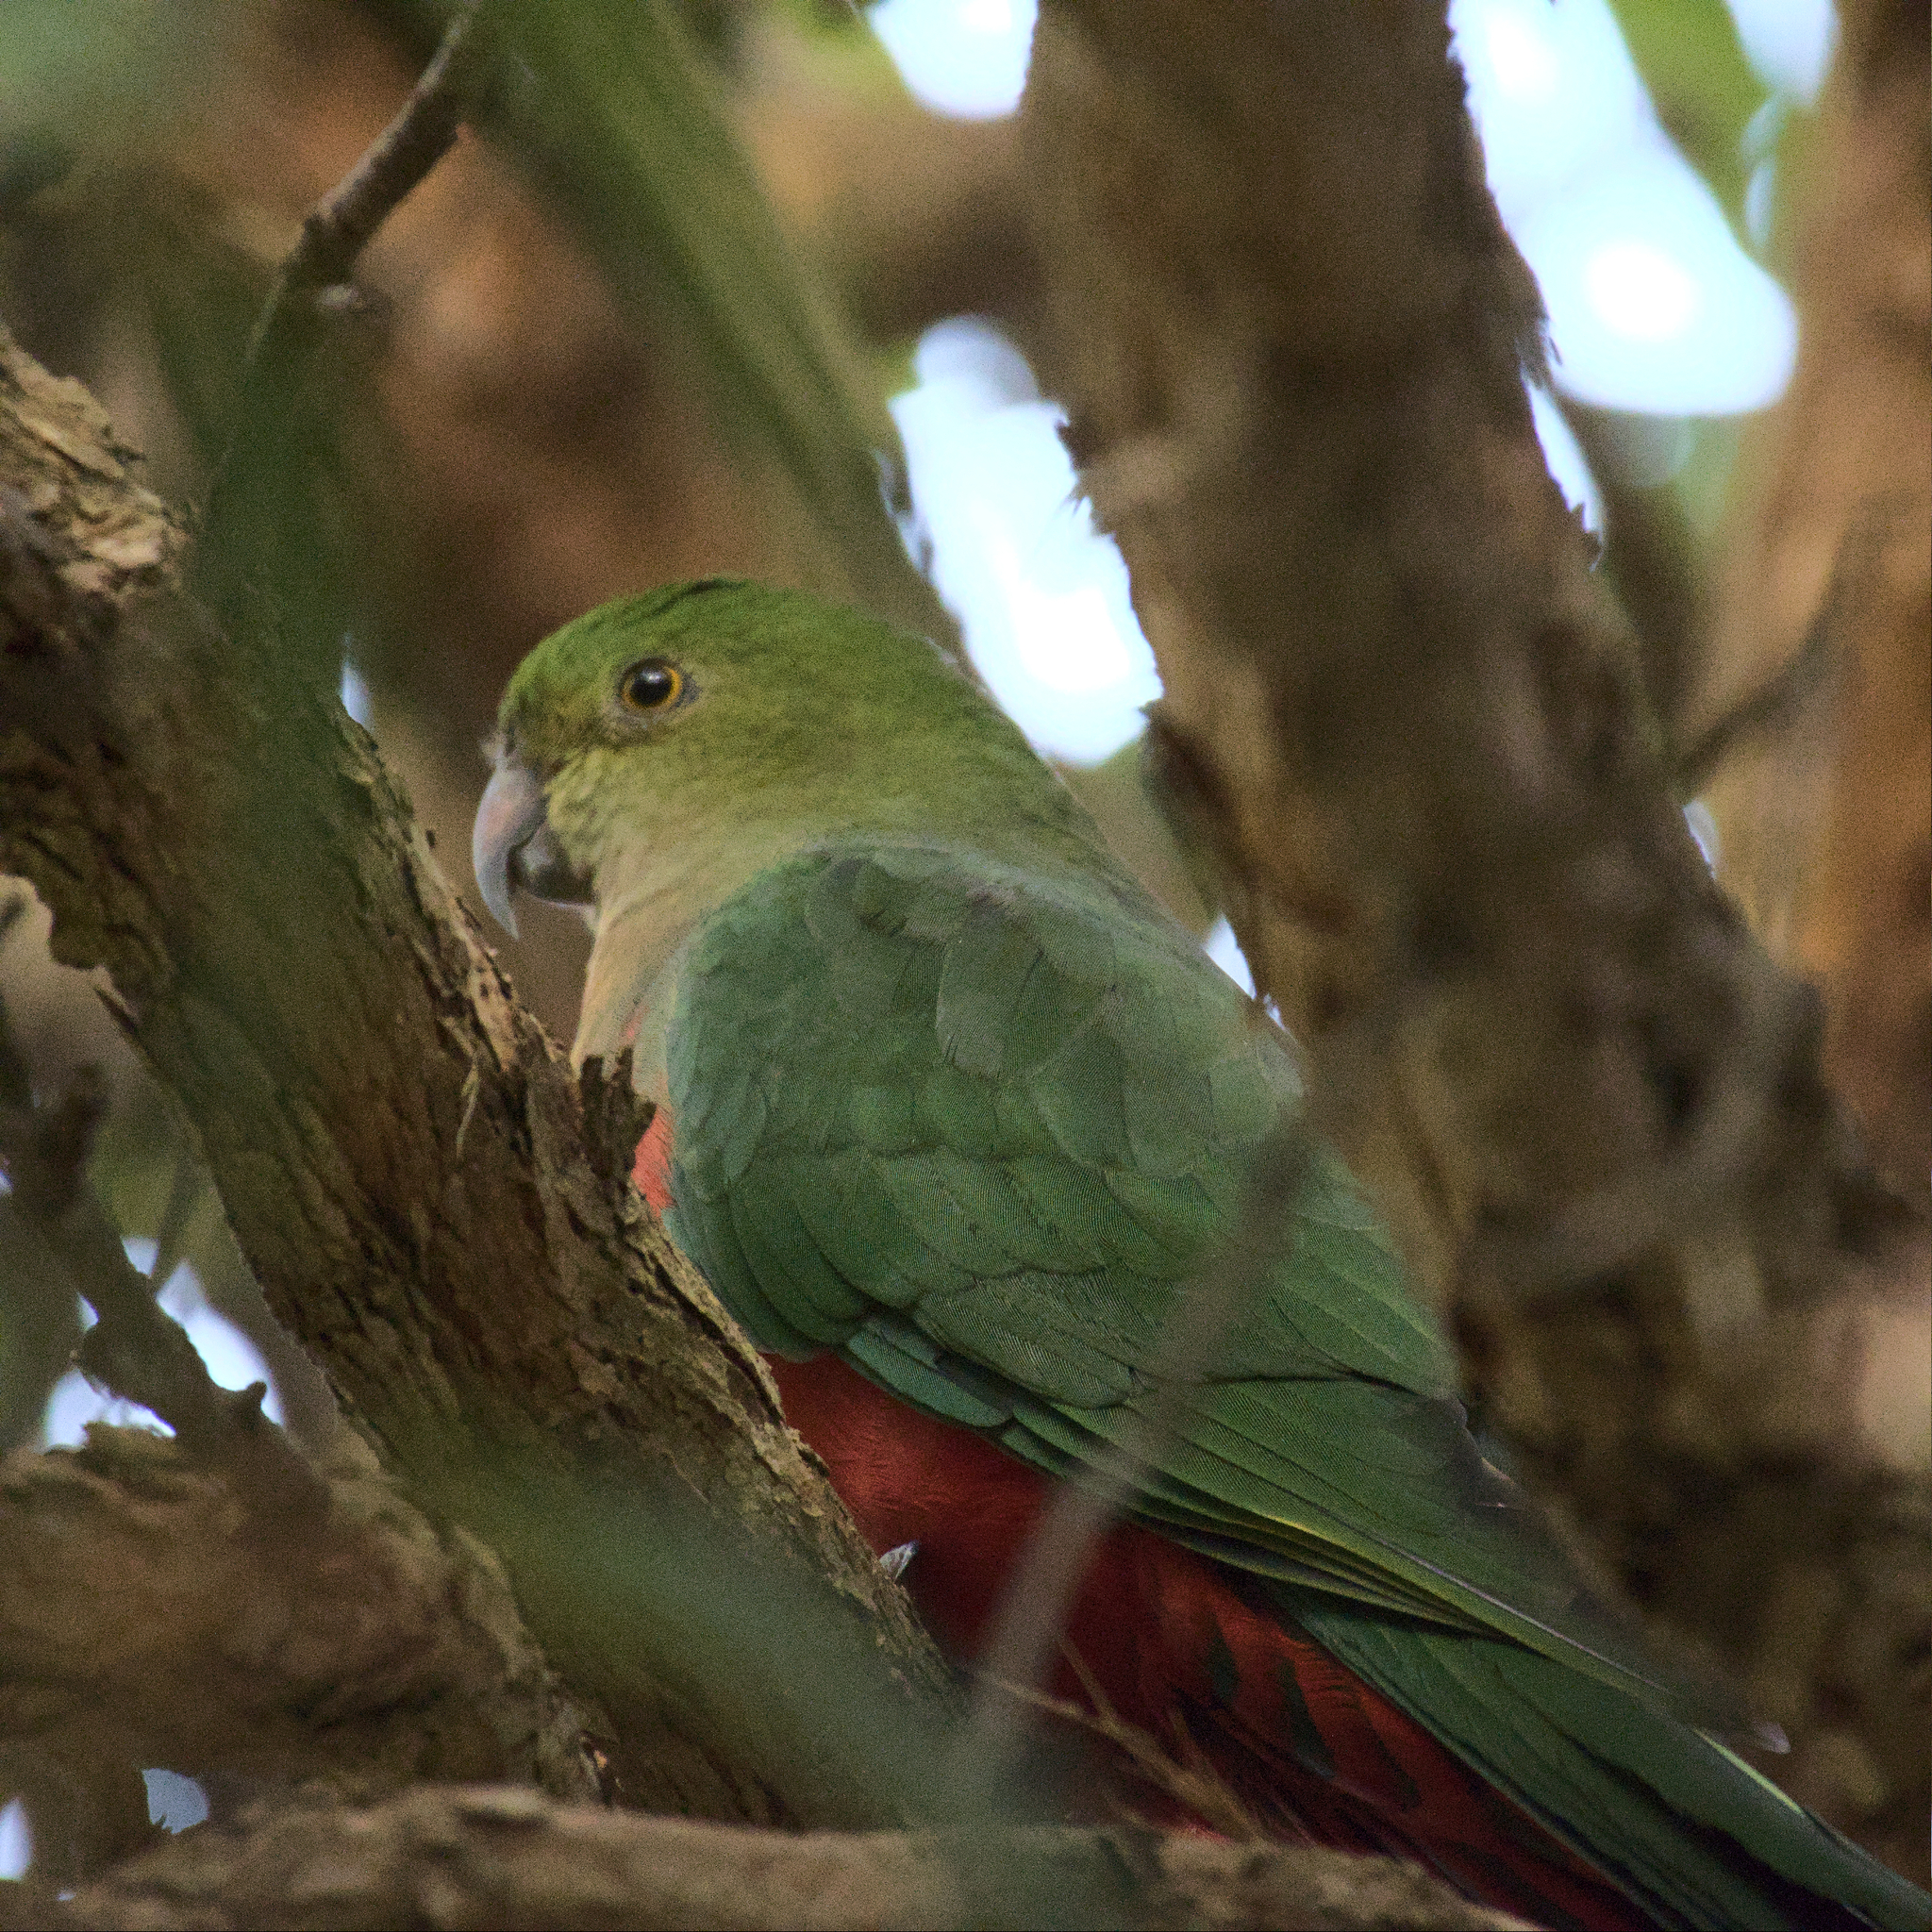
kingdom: Animalia
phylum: Chordata
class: Aves
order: Psittaciformes
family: Psittacidae
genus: Alisterus
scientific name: Alisterus scapularis
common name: Australian king parrot
